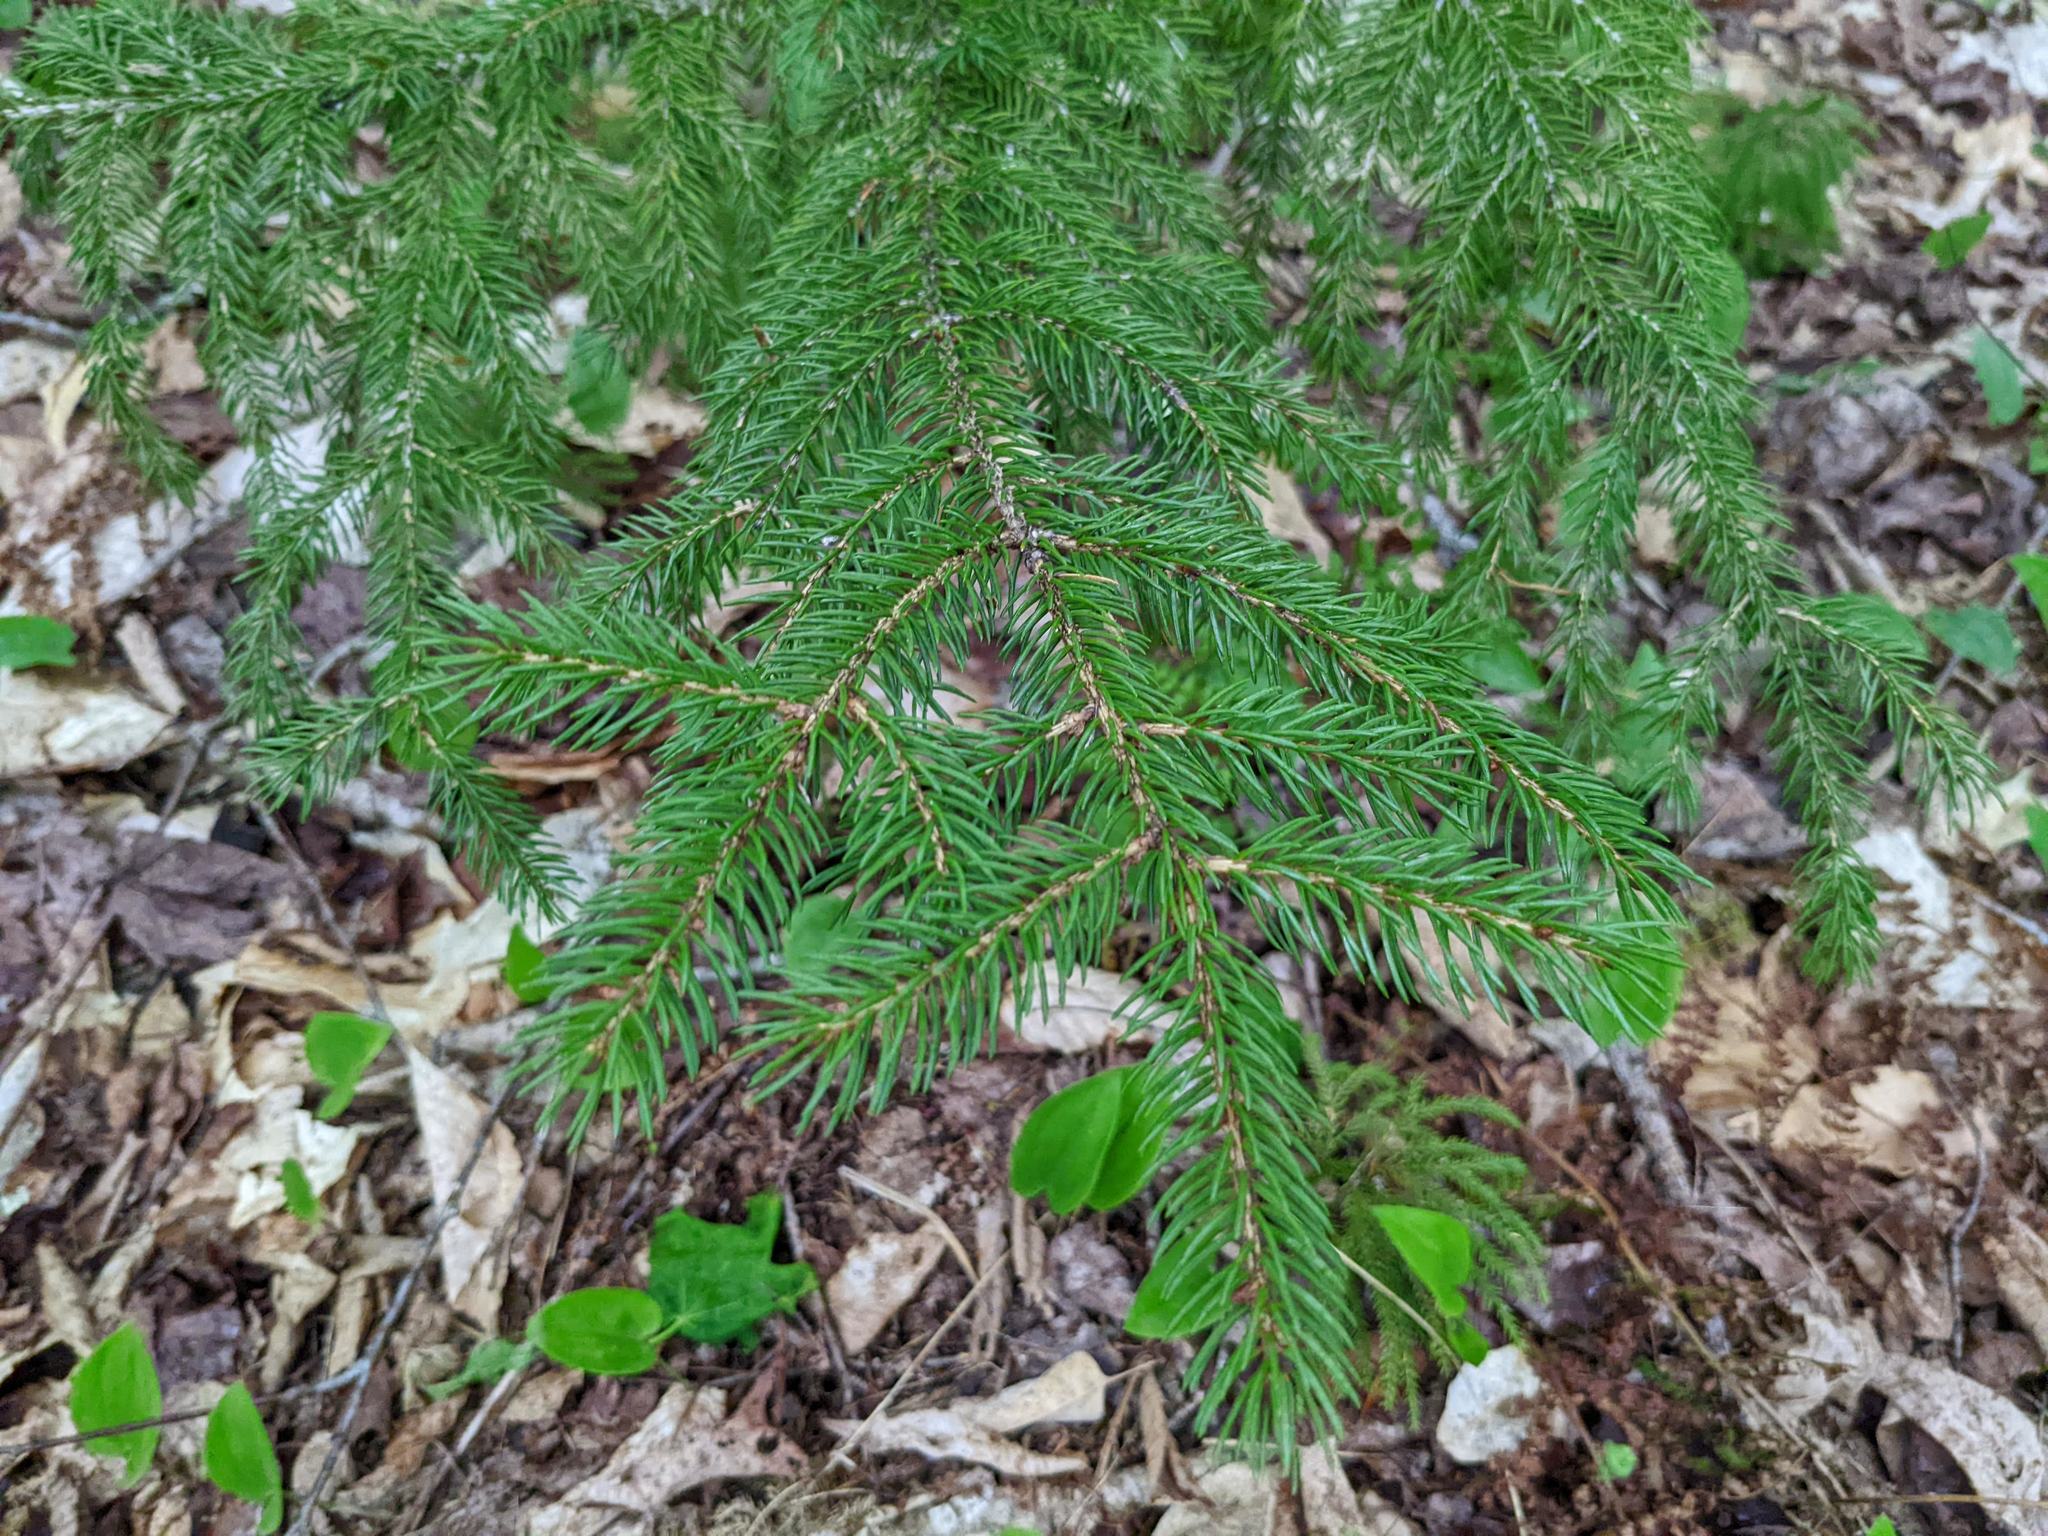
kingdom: Plantae
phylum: Tracheophyta
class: Pinopsida
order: Pinales
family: Pinaceae
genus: Picea
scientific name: Picea rubens
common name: Red spruce
